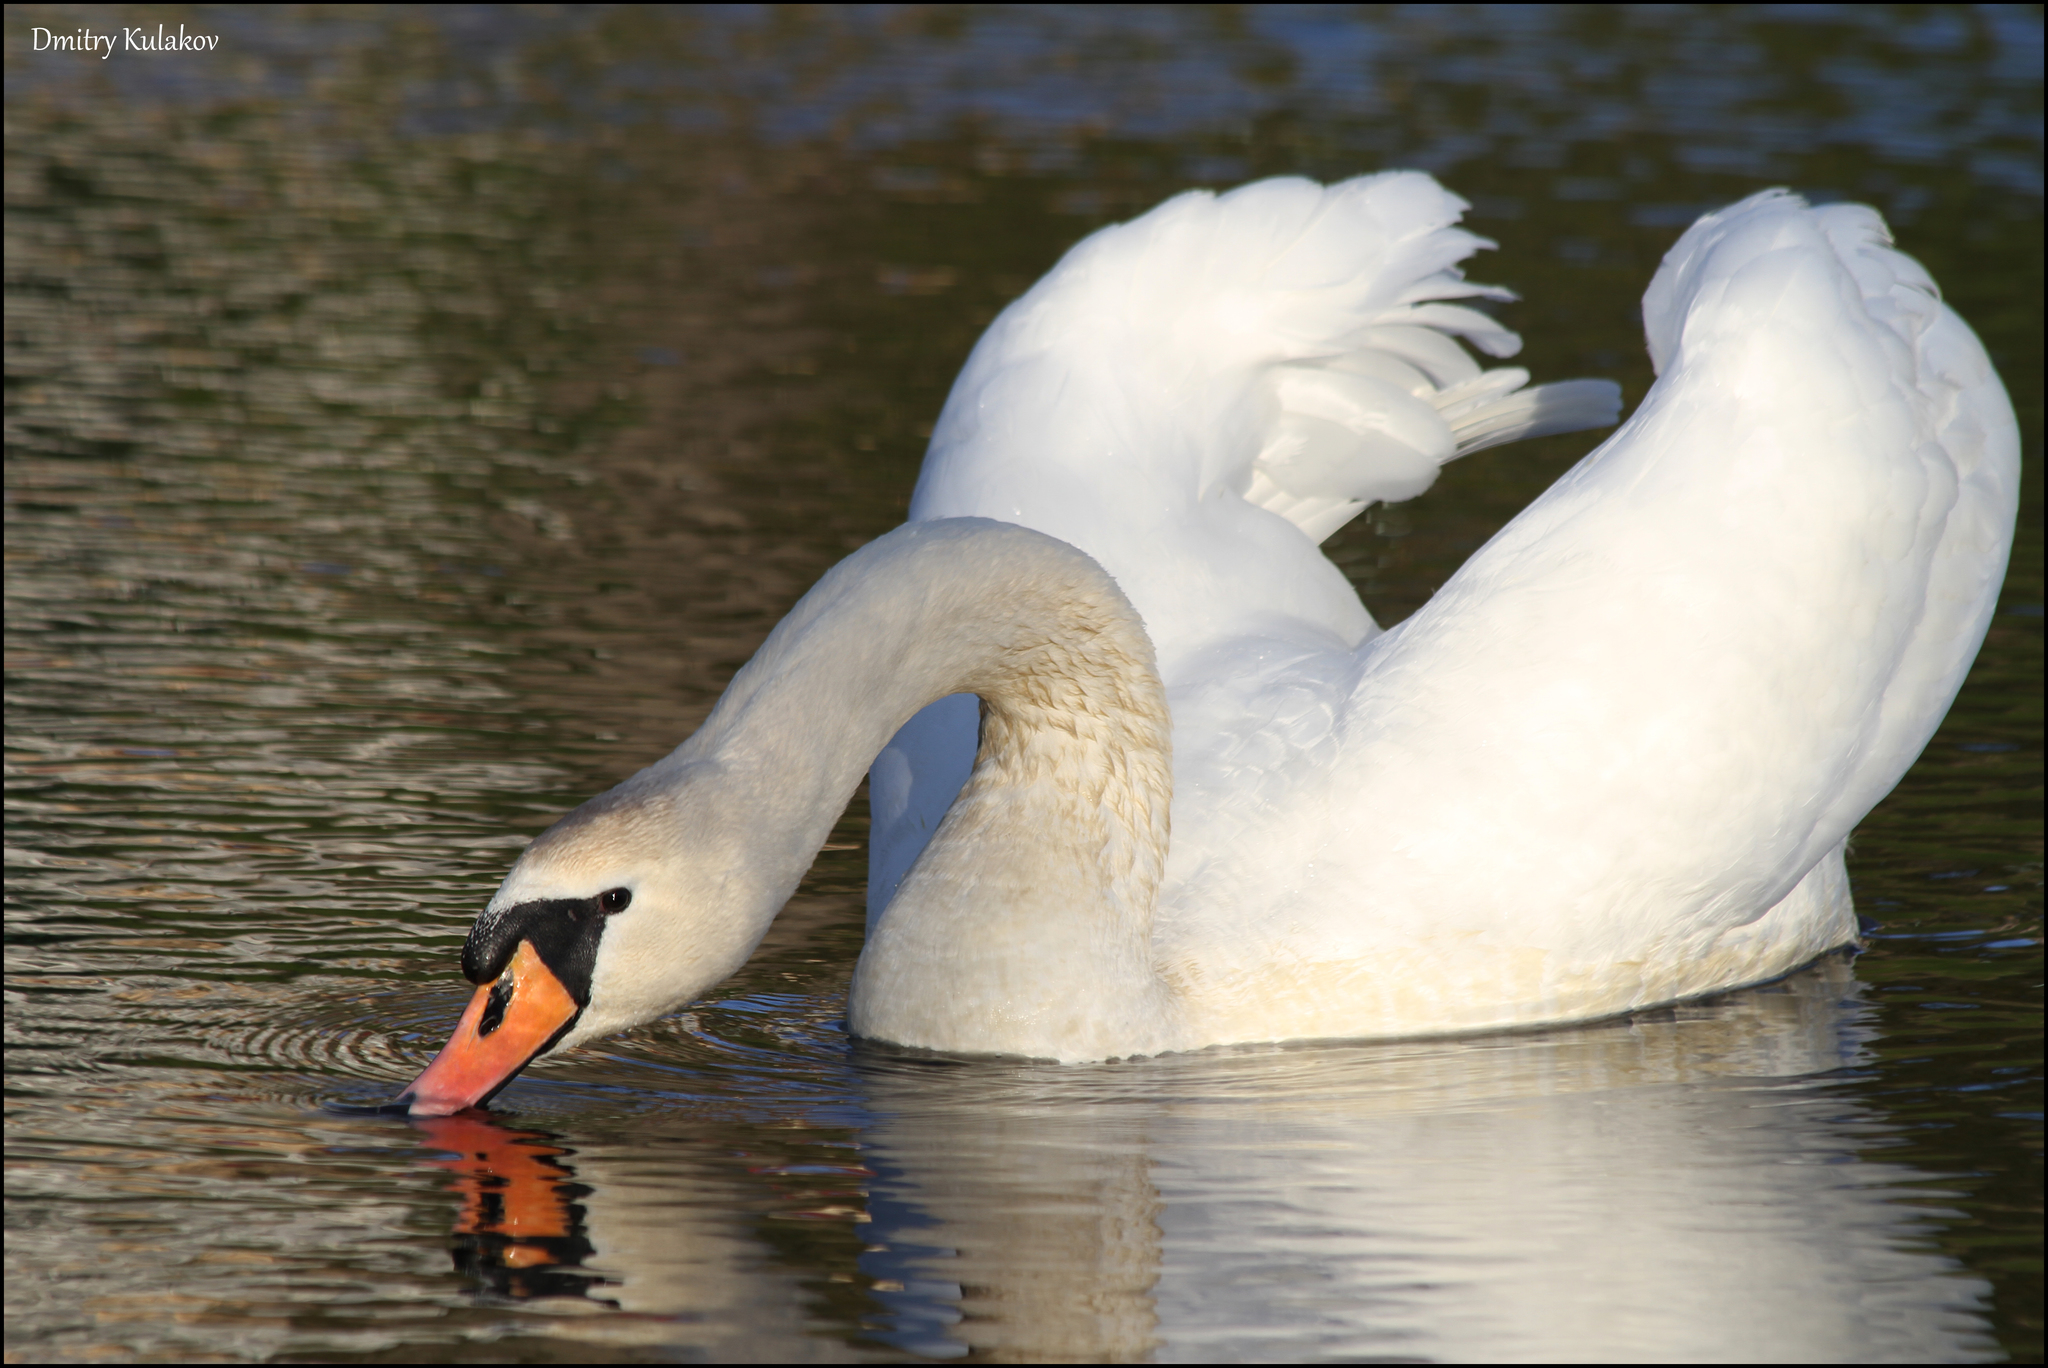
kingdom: Animalia
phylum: Chordata
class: Aves
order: Anseriformes
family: Anatidae
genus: Cygnus
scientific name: Cygnus olor
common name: Mute swan
